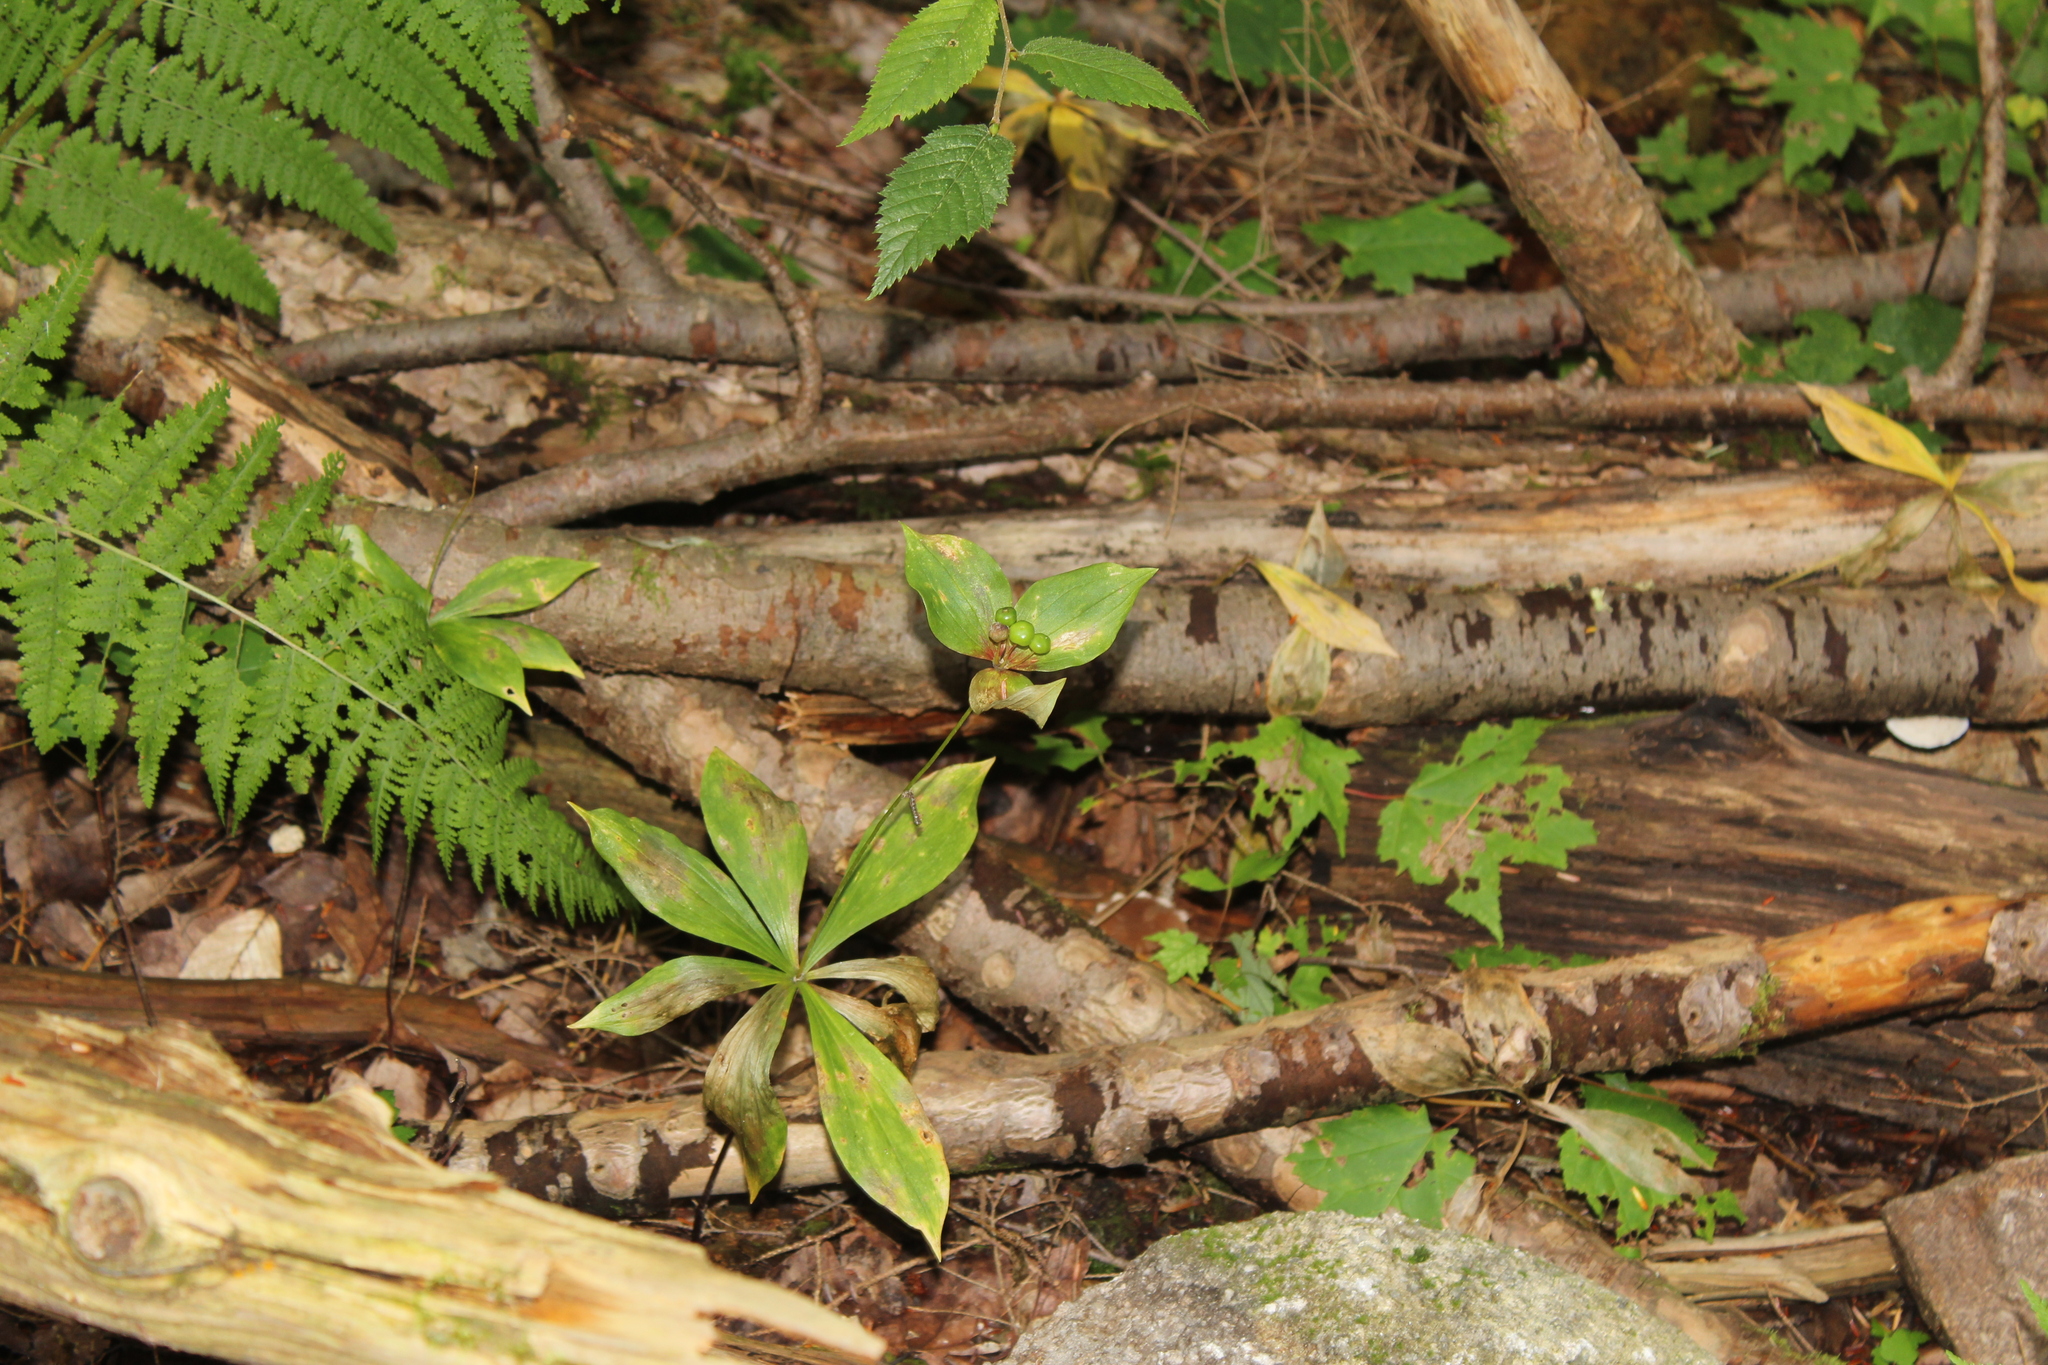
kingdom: Plantae
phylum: Tracheophyta
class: Liliopsida
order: Liliales
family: Liliaceae
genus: Medeola
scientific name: Medeola virginiana
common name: Indian cucumber-root
